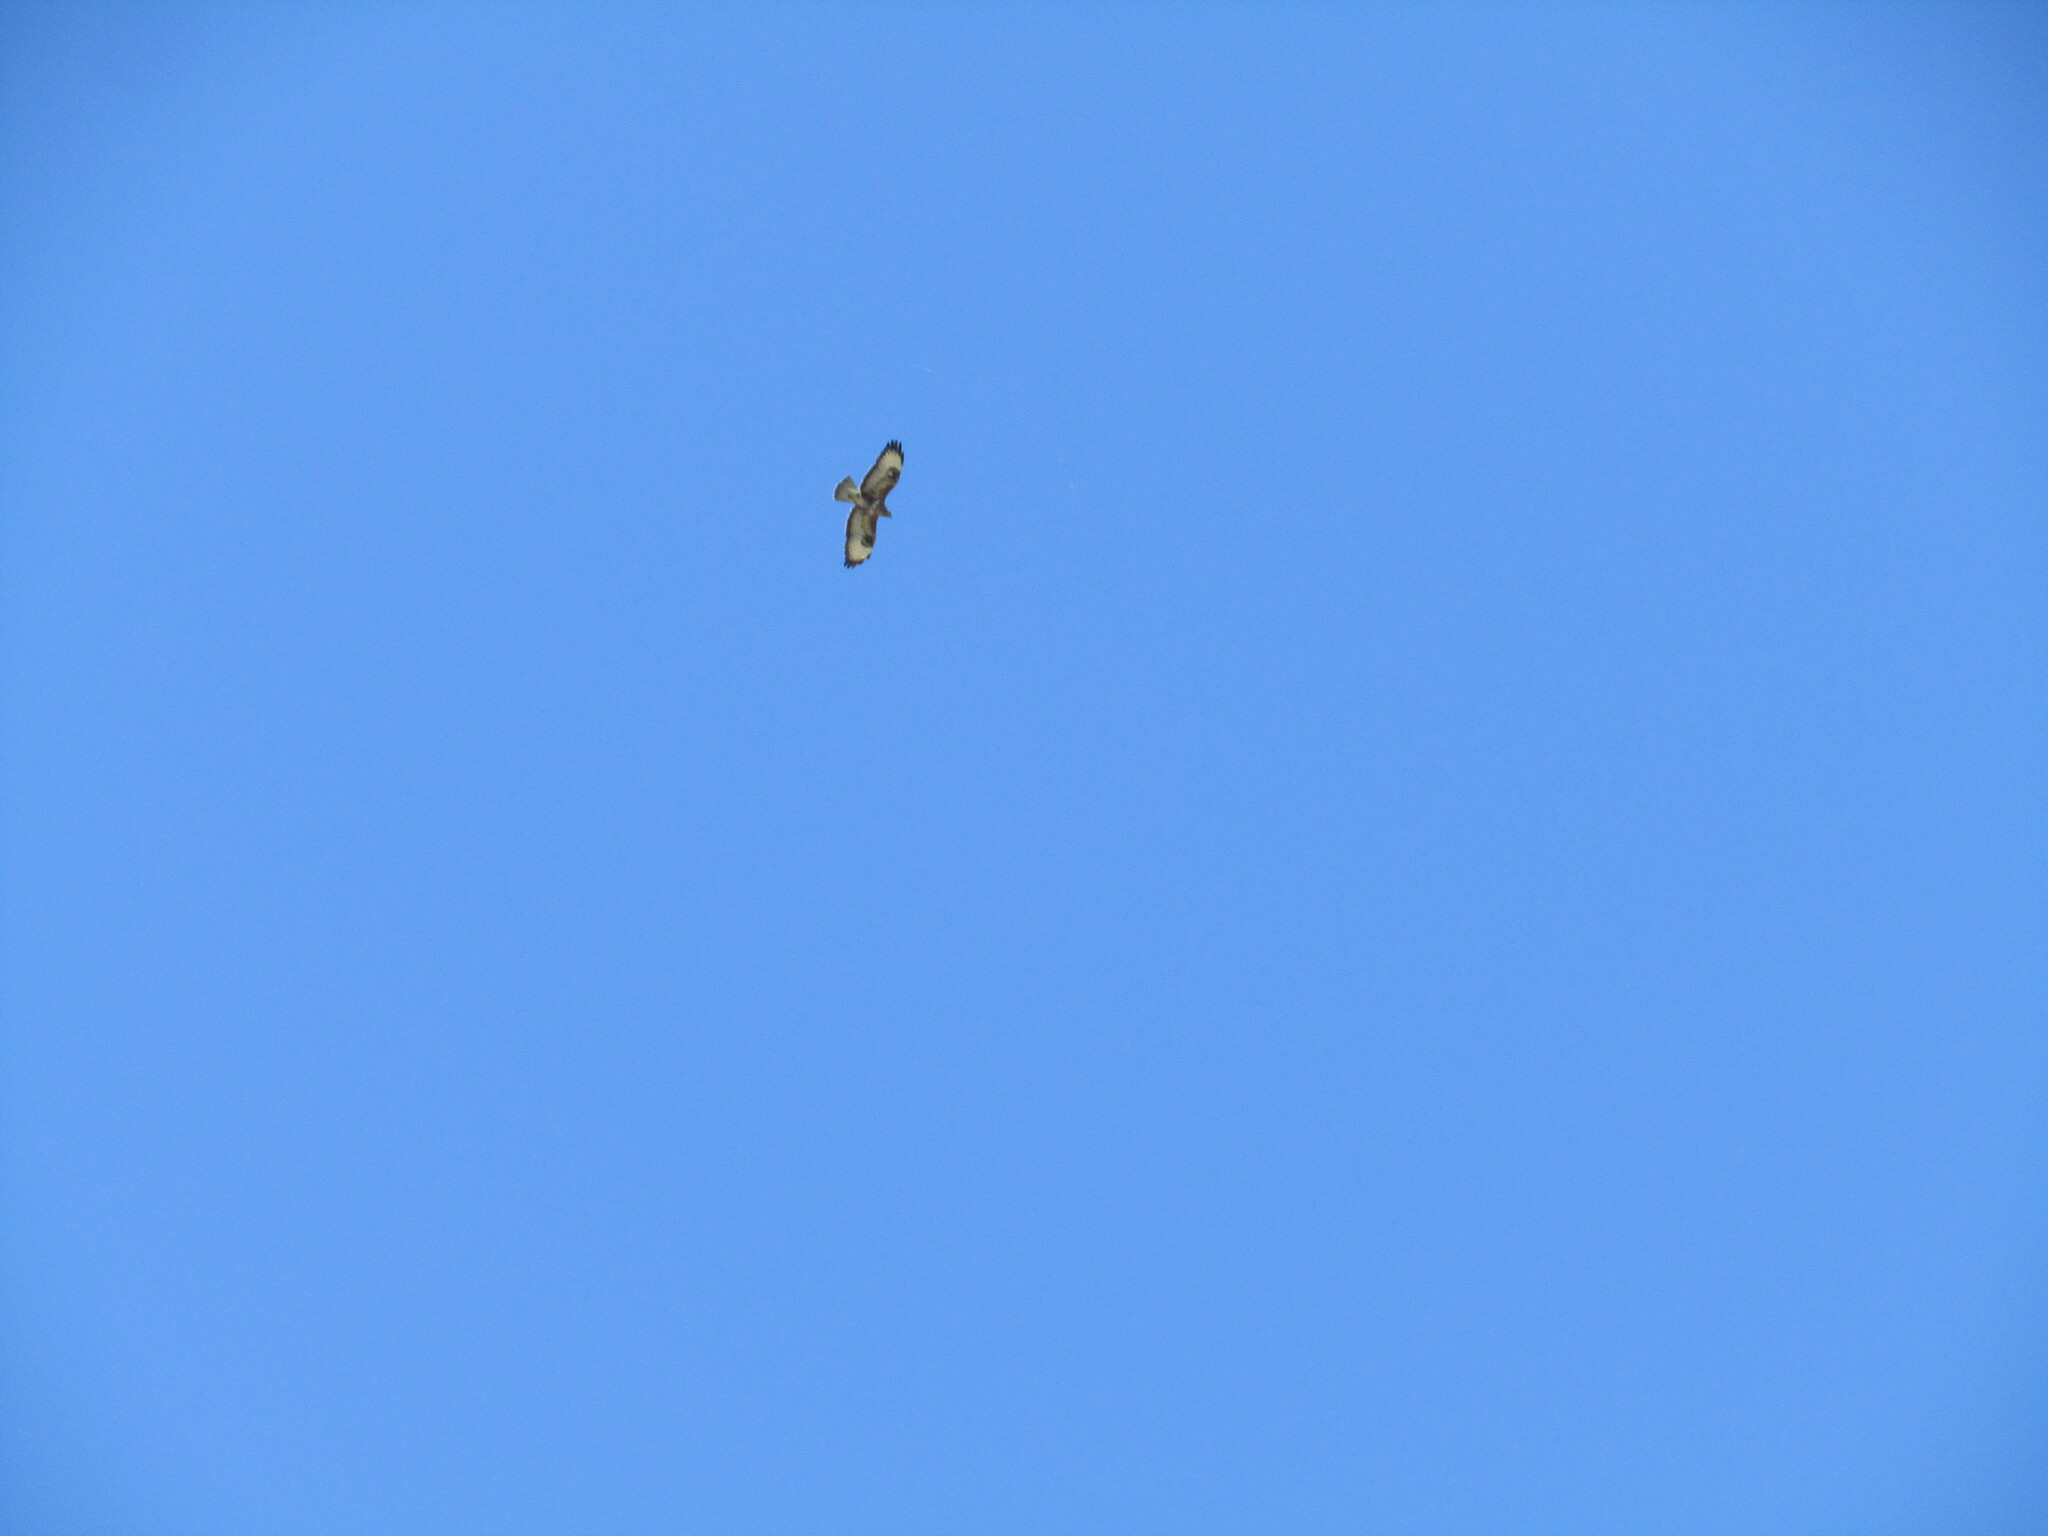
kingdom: Animalia
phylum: Chordata
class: Aves
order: Accipitriformes
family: Accipitridae
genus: Buteo
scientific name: Buteo buteo
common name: Common buzzard
